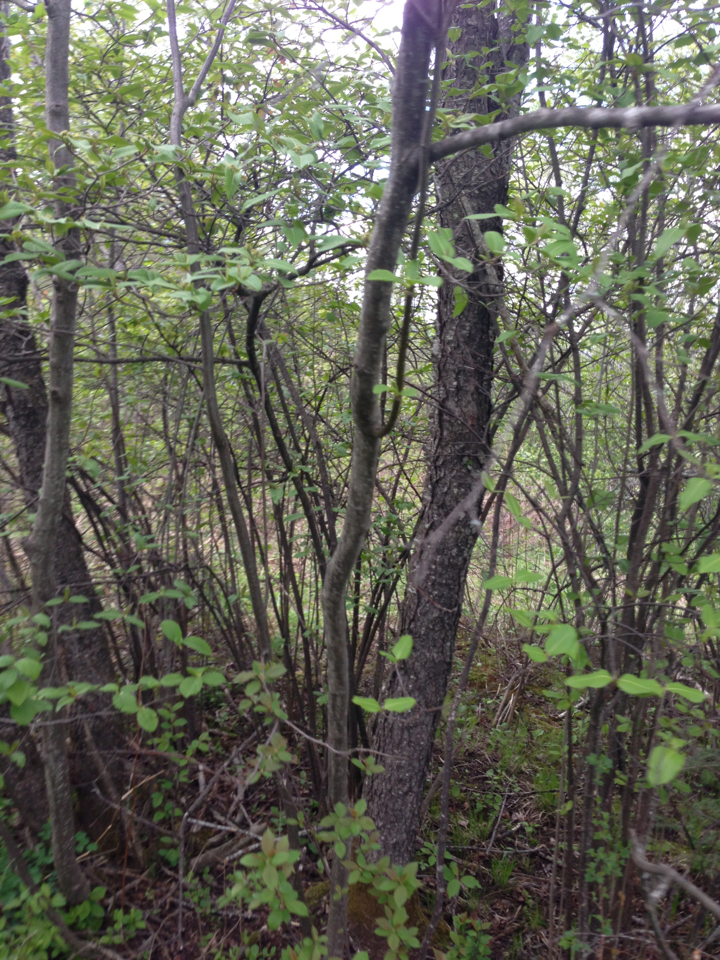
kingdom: Plantae
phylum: Tracheophyta
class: Magnoliopsida
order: Rosales
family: Rosaceae
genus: Prunus
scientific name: Prunus serotina
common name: Black cherry
